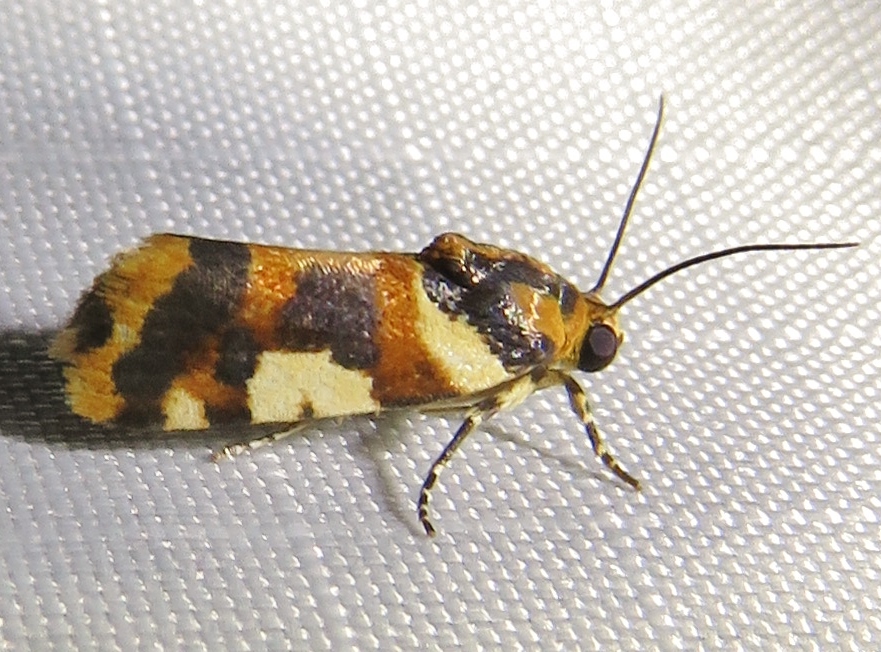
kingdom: Animalia
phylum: Arthropoda
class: Insecta
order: Lepidoptera
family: Noctuidae
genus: Acontia
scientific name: Acontia dama
